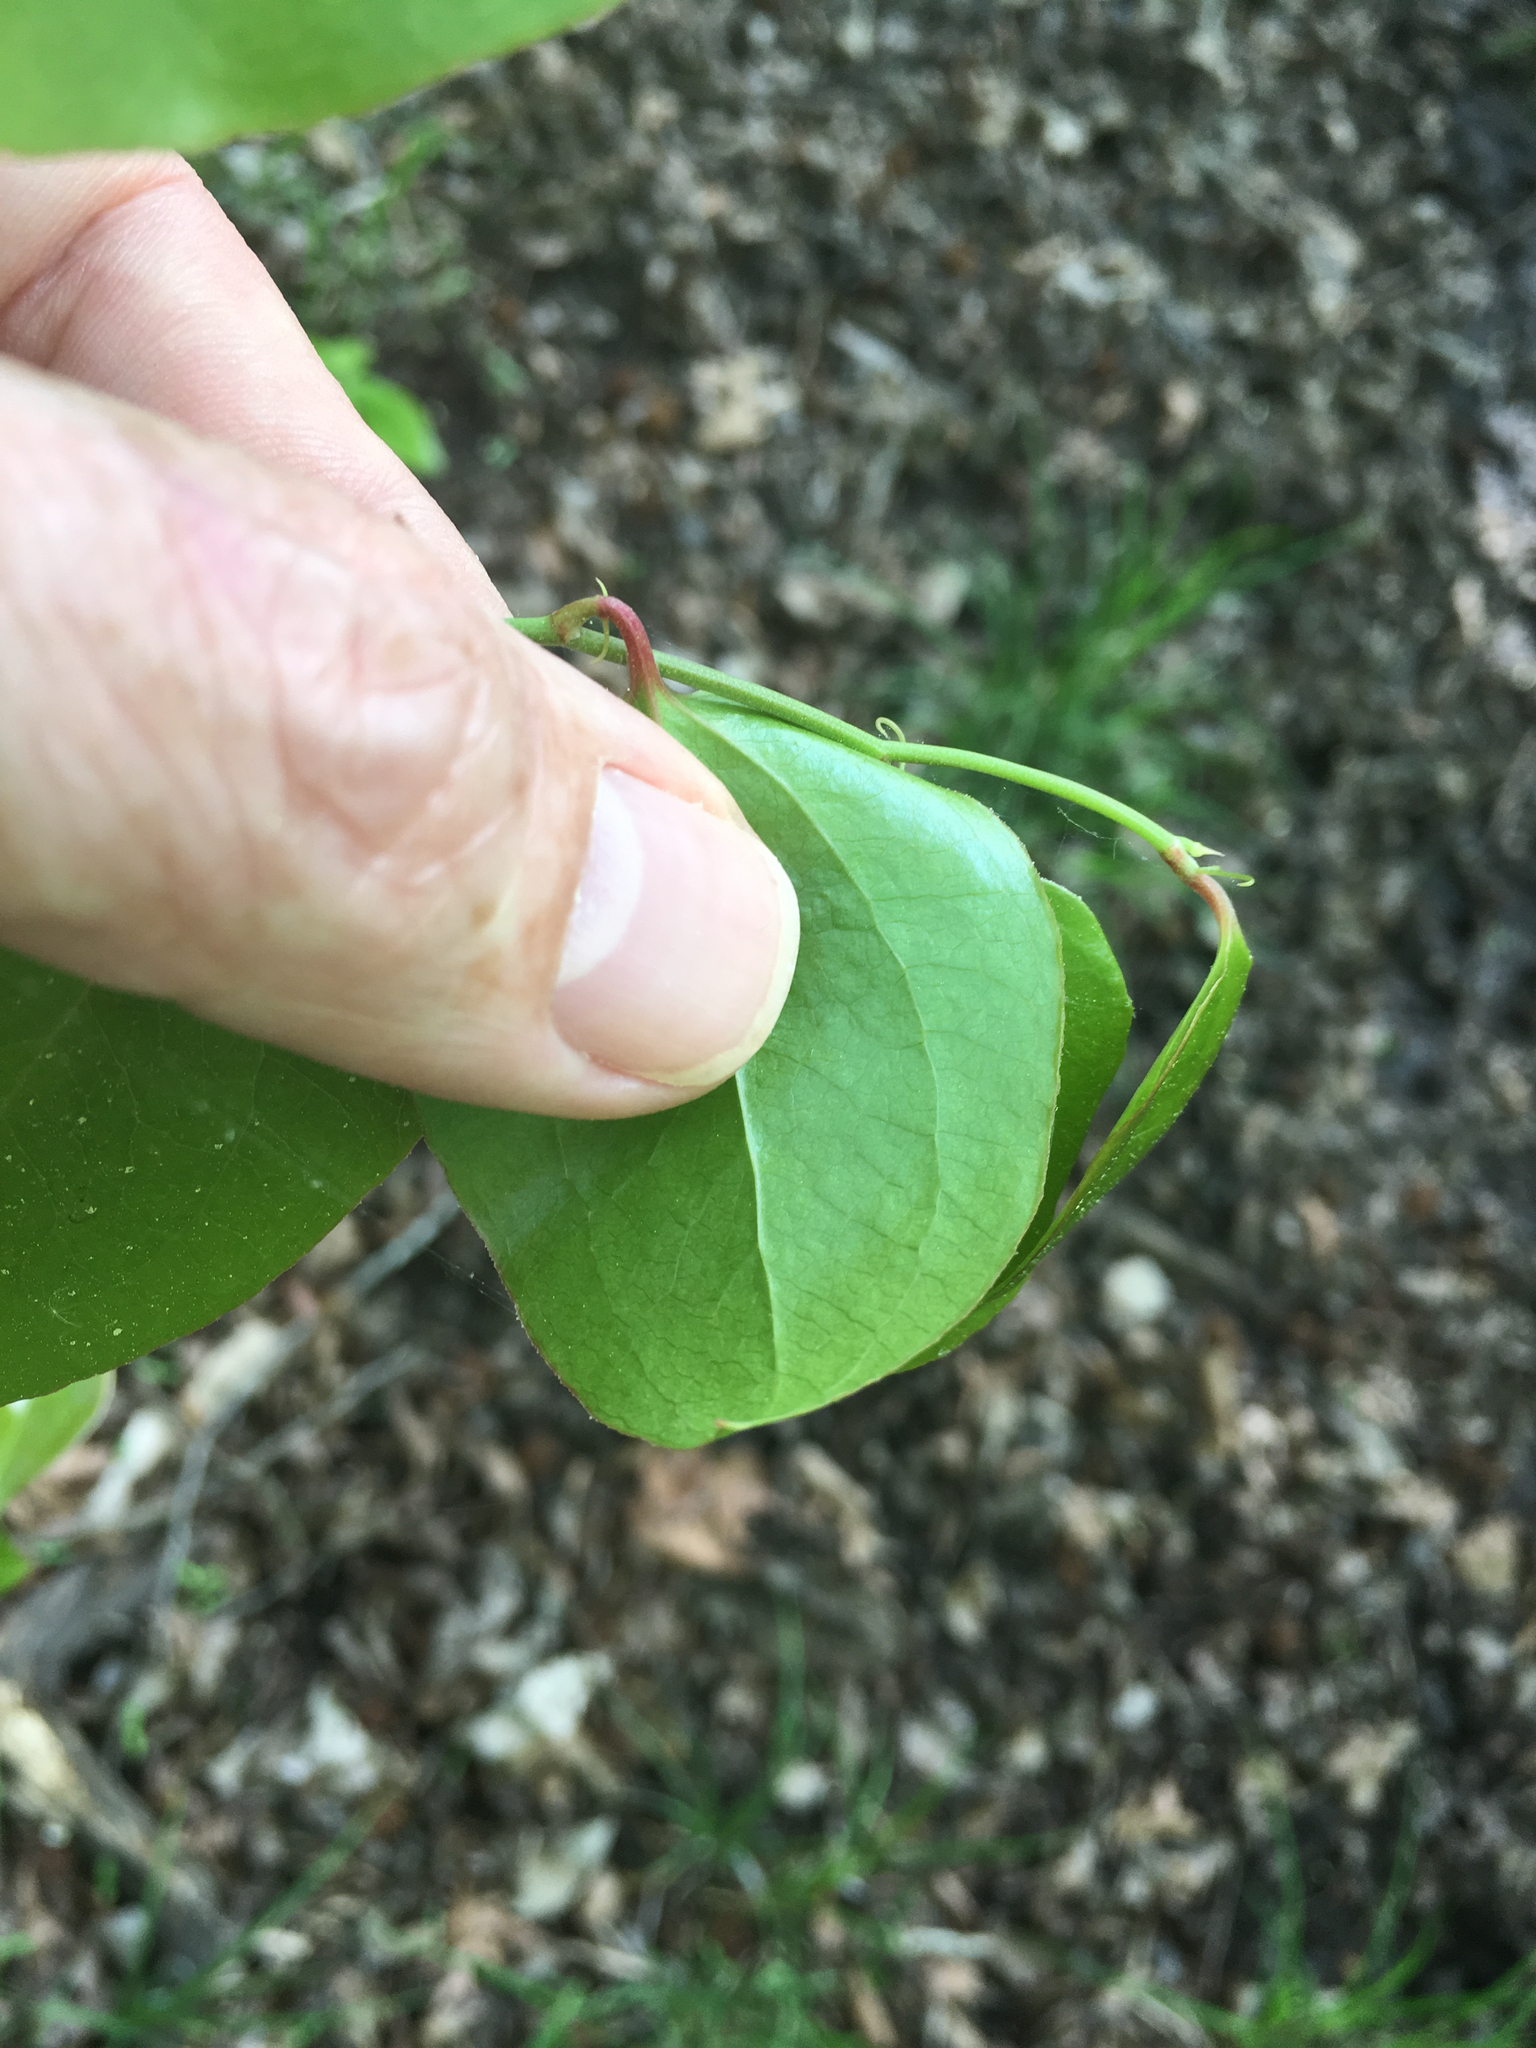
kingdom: Plantae
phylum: Tracheophyta
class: Liliopsida
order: Liliales
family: Smilacaceae
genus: Smilax
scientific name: Smilax rotundifolia
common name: Bullbriar
